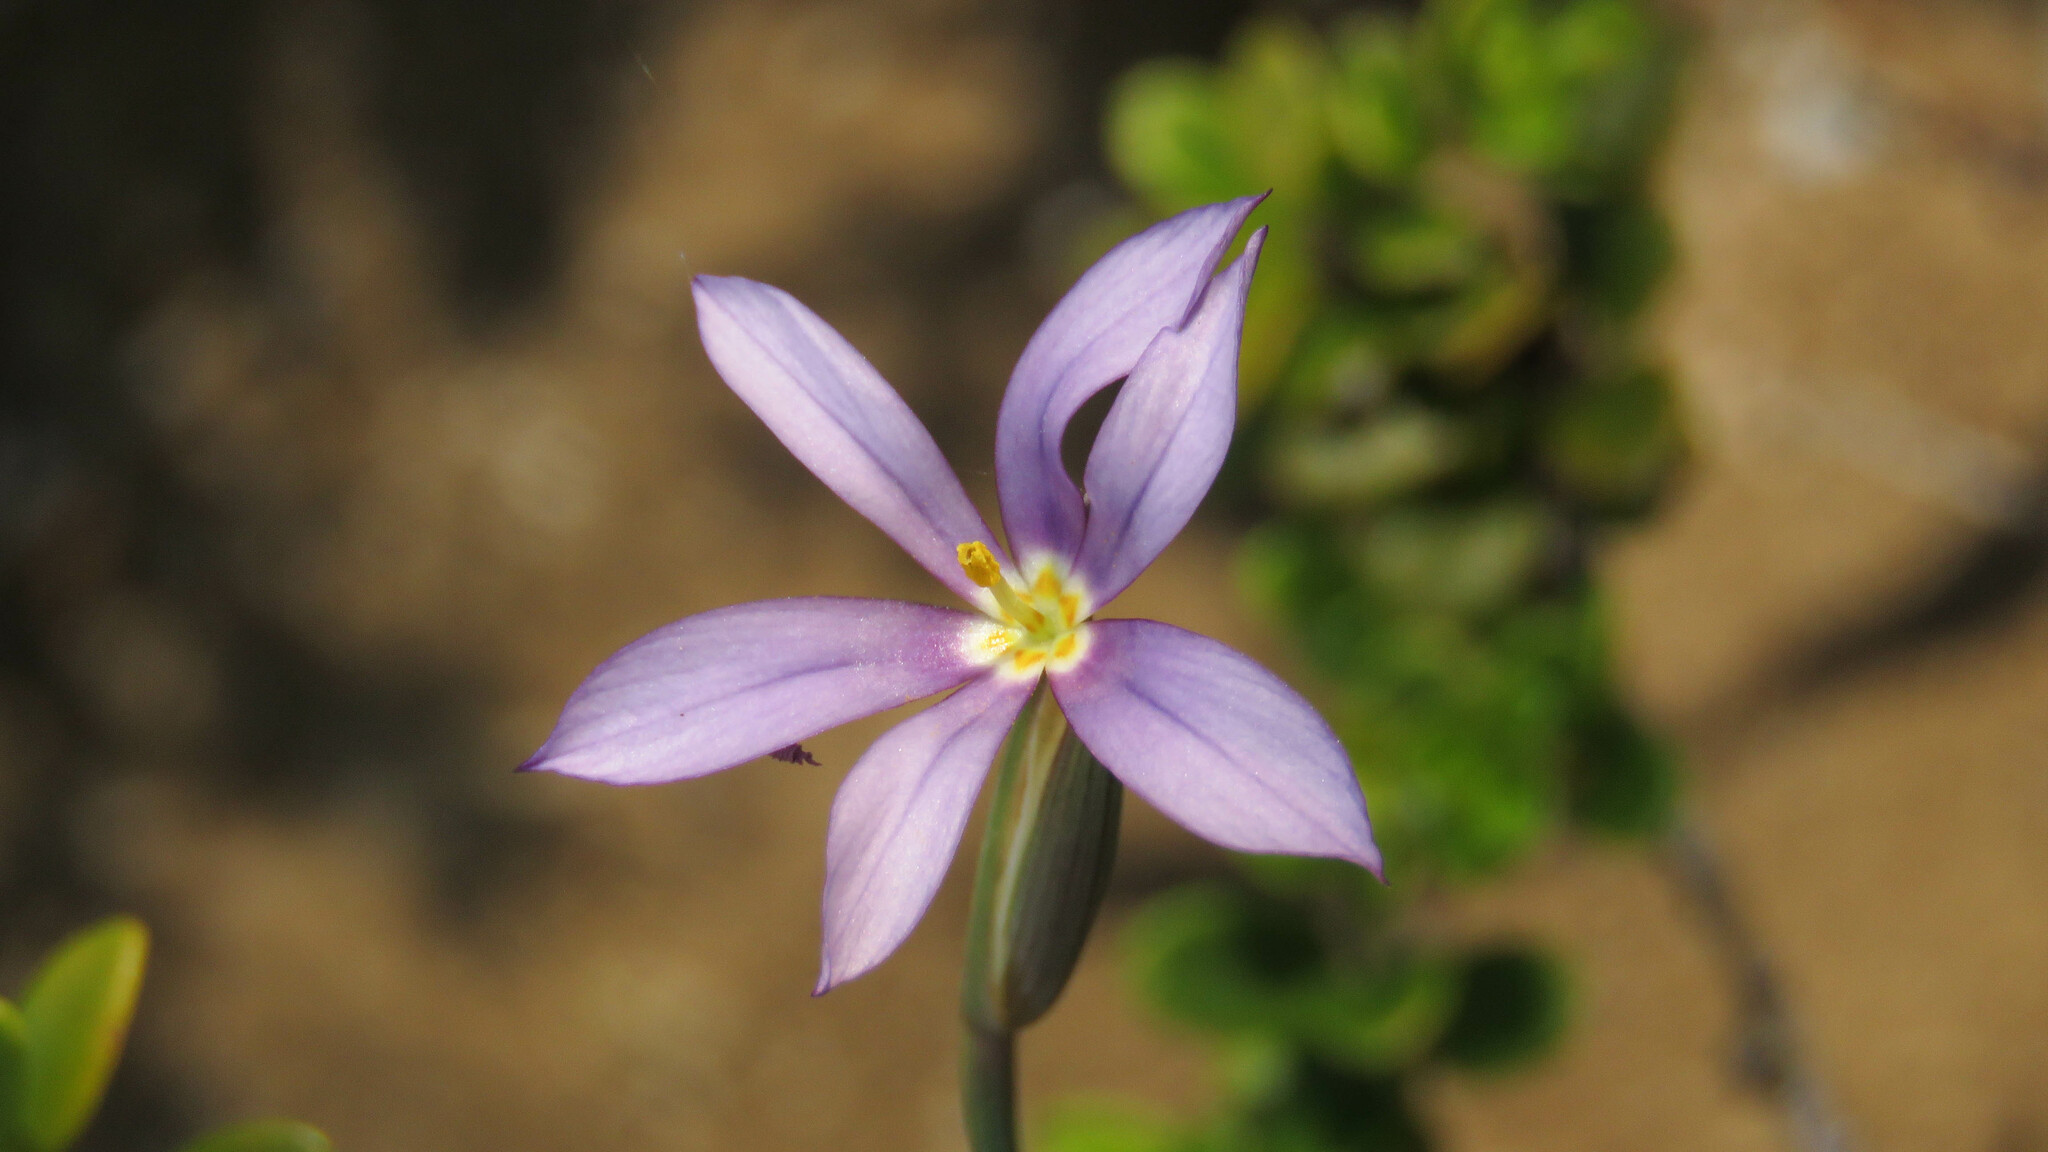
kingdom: Plantae
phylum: Tracheophyta
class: Liliopsida
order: Asparagales
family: Iridaceae
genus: Solenomelus
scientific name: Solenomelus segethi
